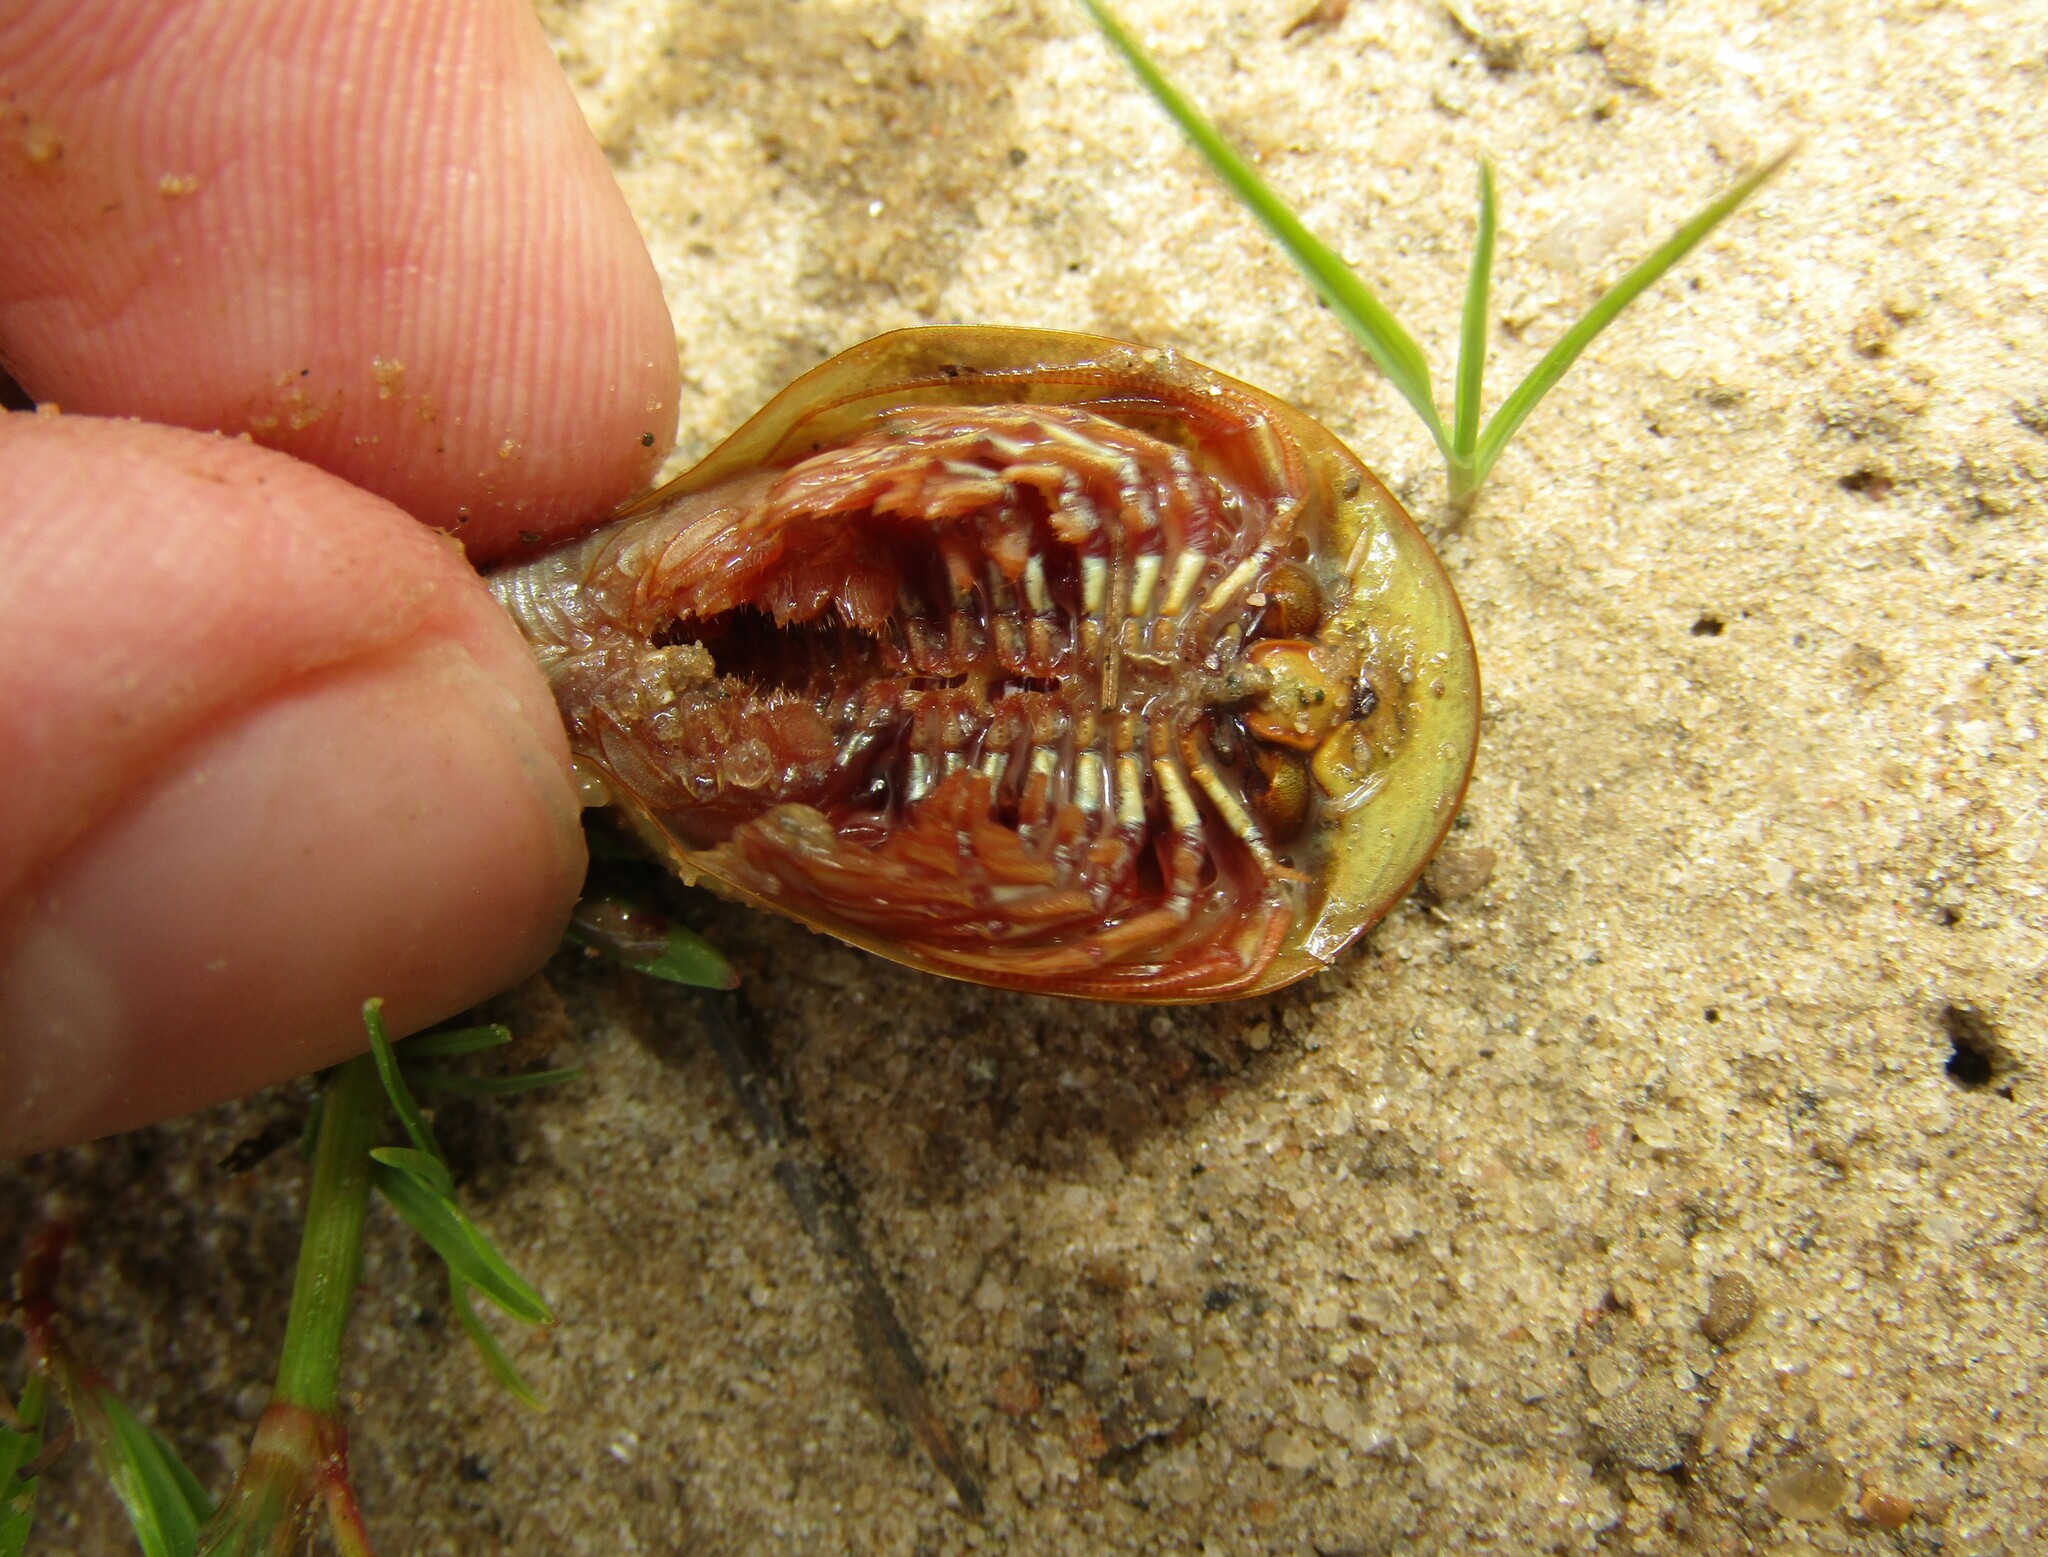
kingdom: Animalia
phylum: Arthropoda
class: Branchiopoda
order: Notostraca
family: Triopsidae
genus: Triops
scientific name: Triops cancriformis
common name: Tadpole shrimp
